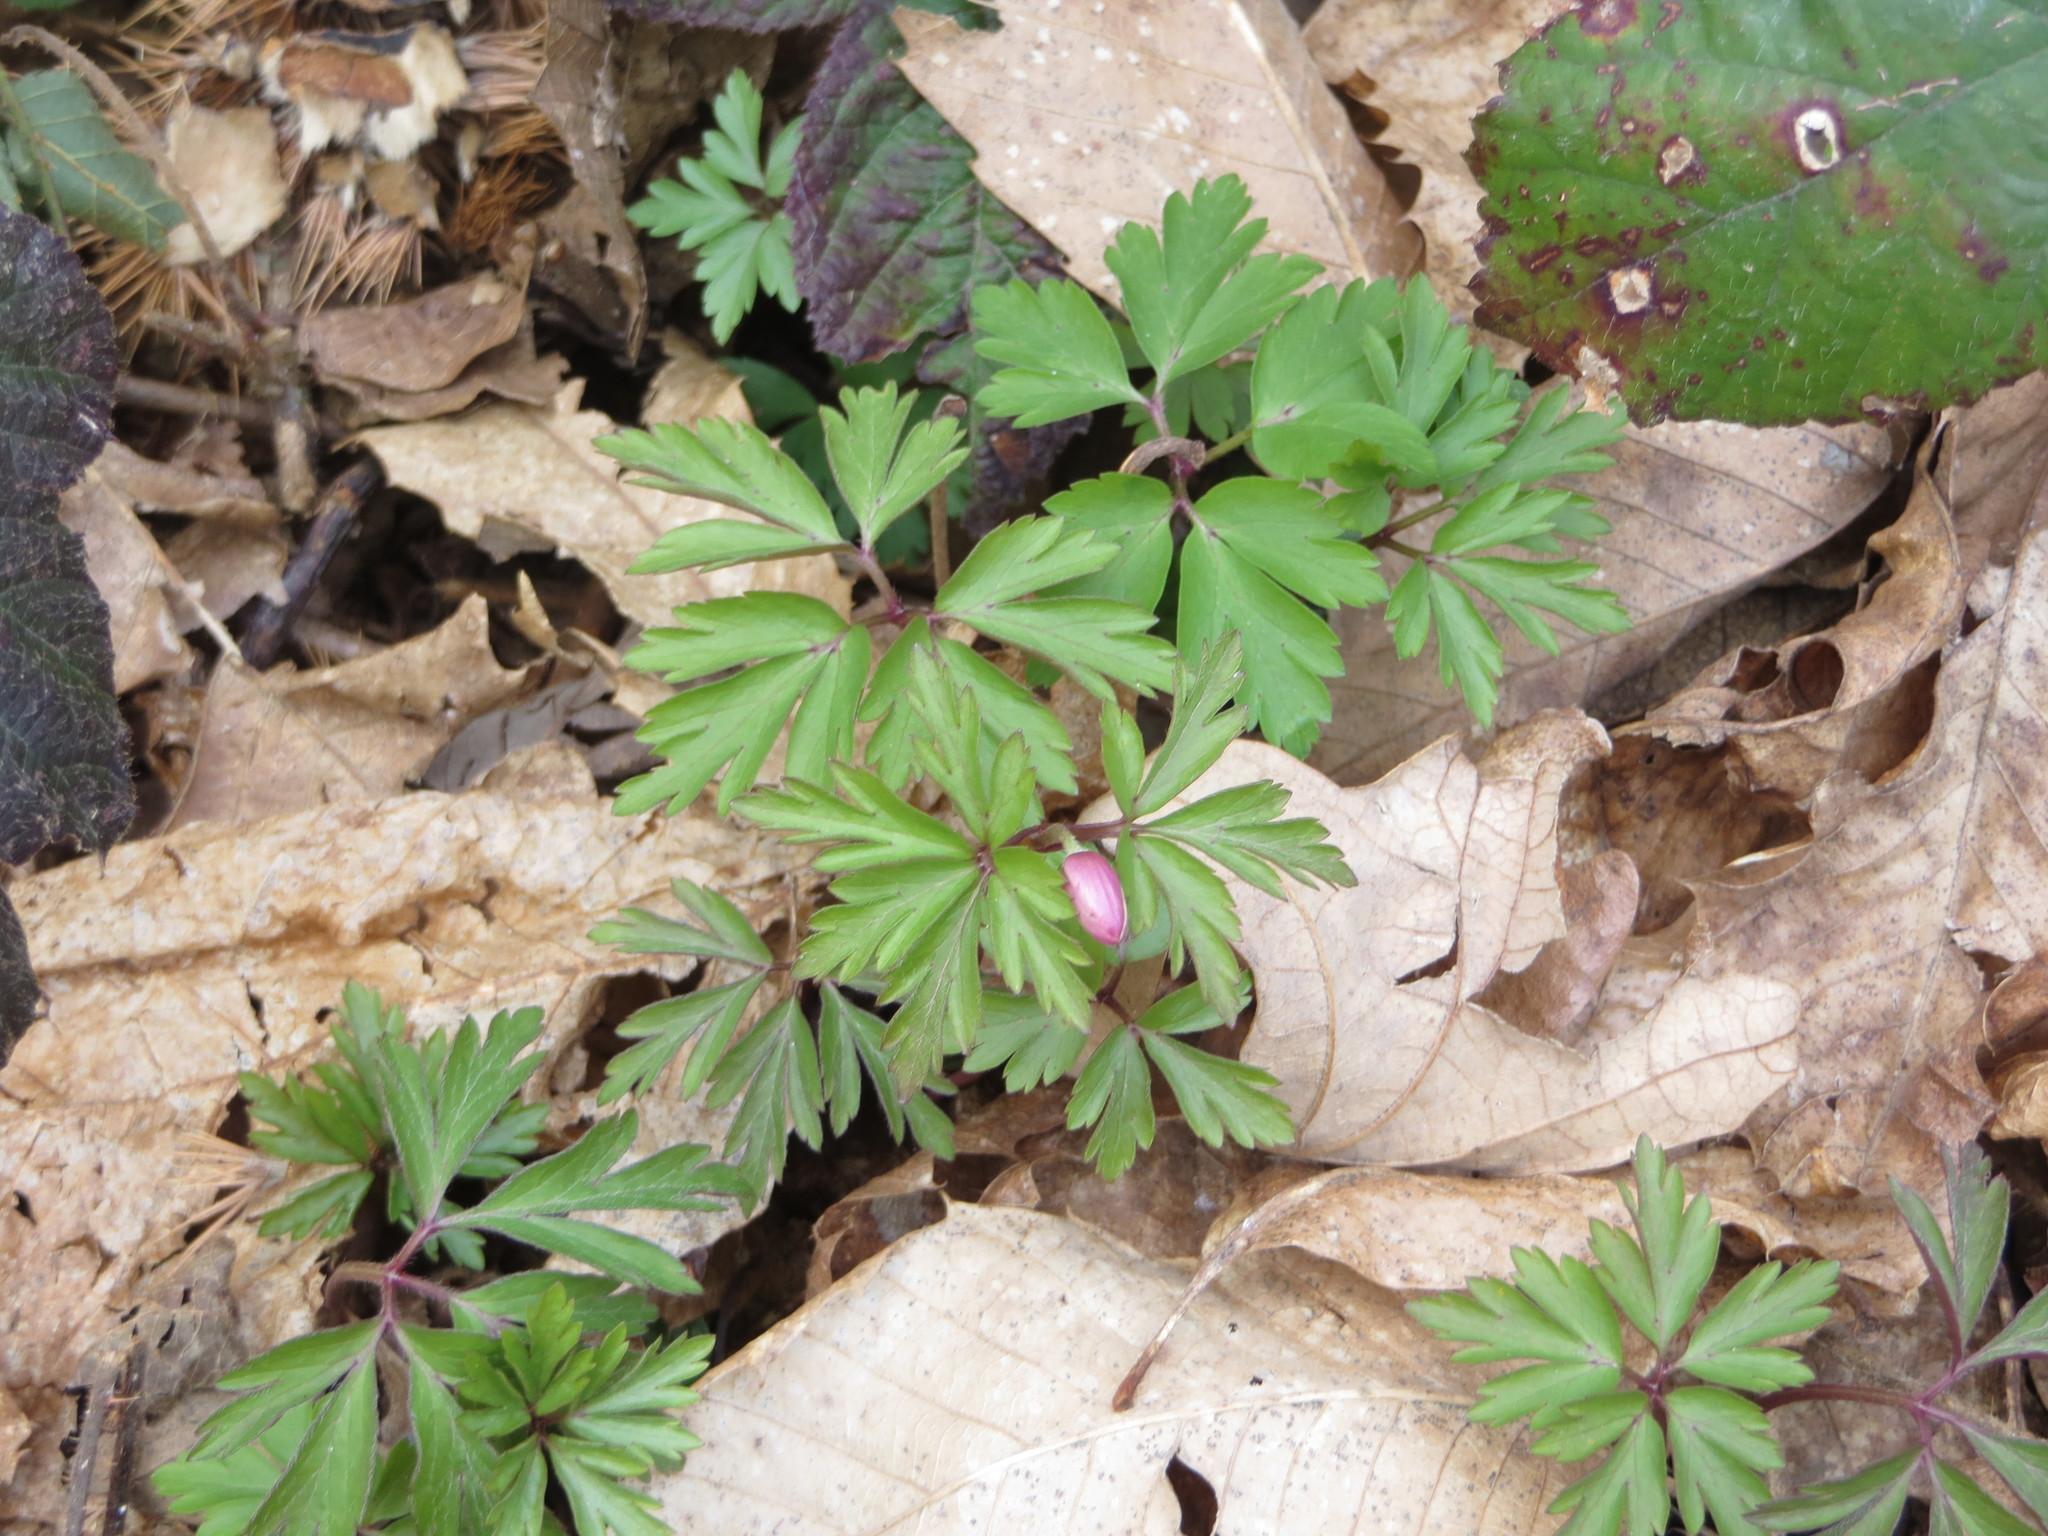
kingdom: Plantae
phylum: Tracheophyta
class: Magnoliopsida
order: Ranunculales
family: Ranunculaceae
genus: Anemone
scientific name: Anemone nemorosa
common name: Wood anemone
